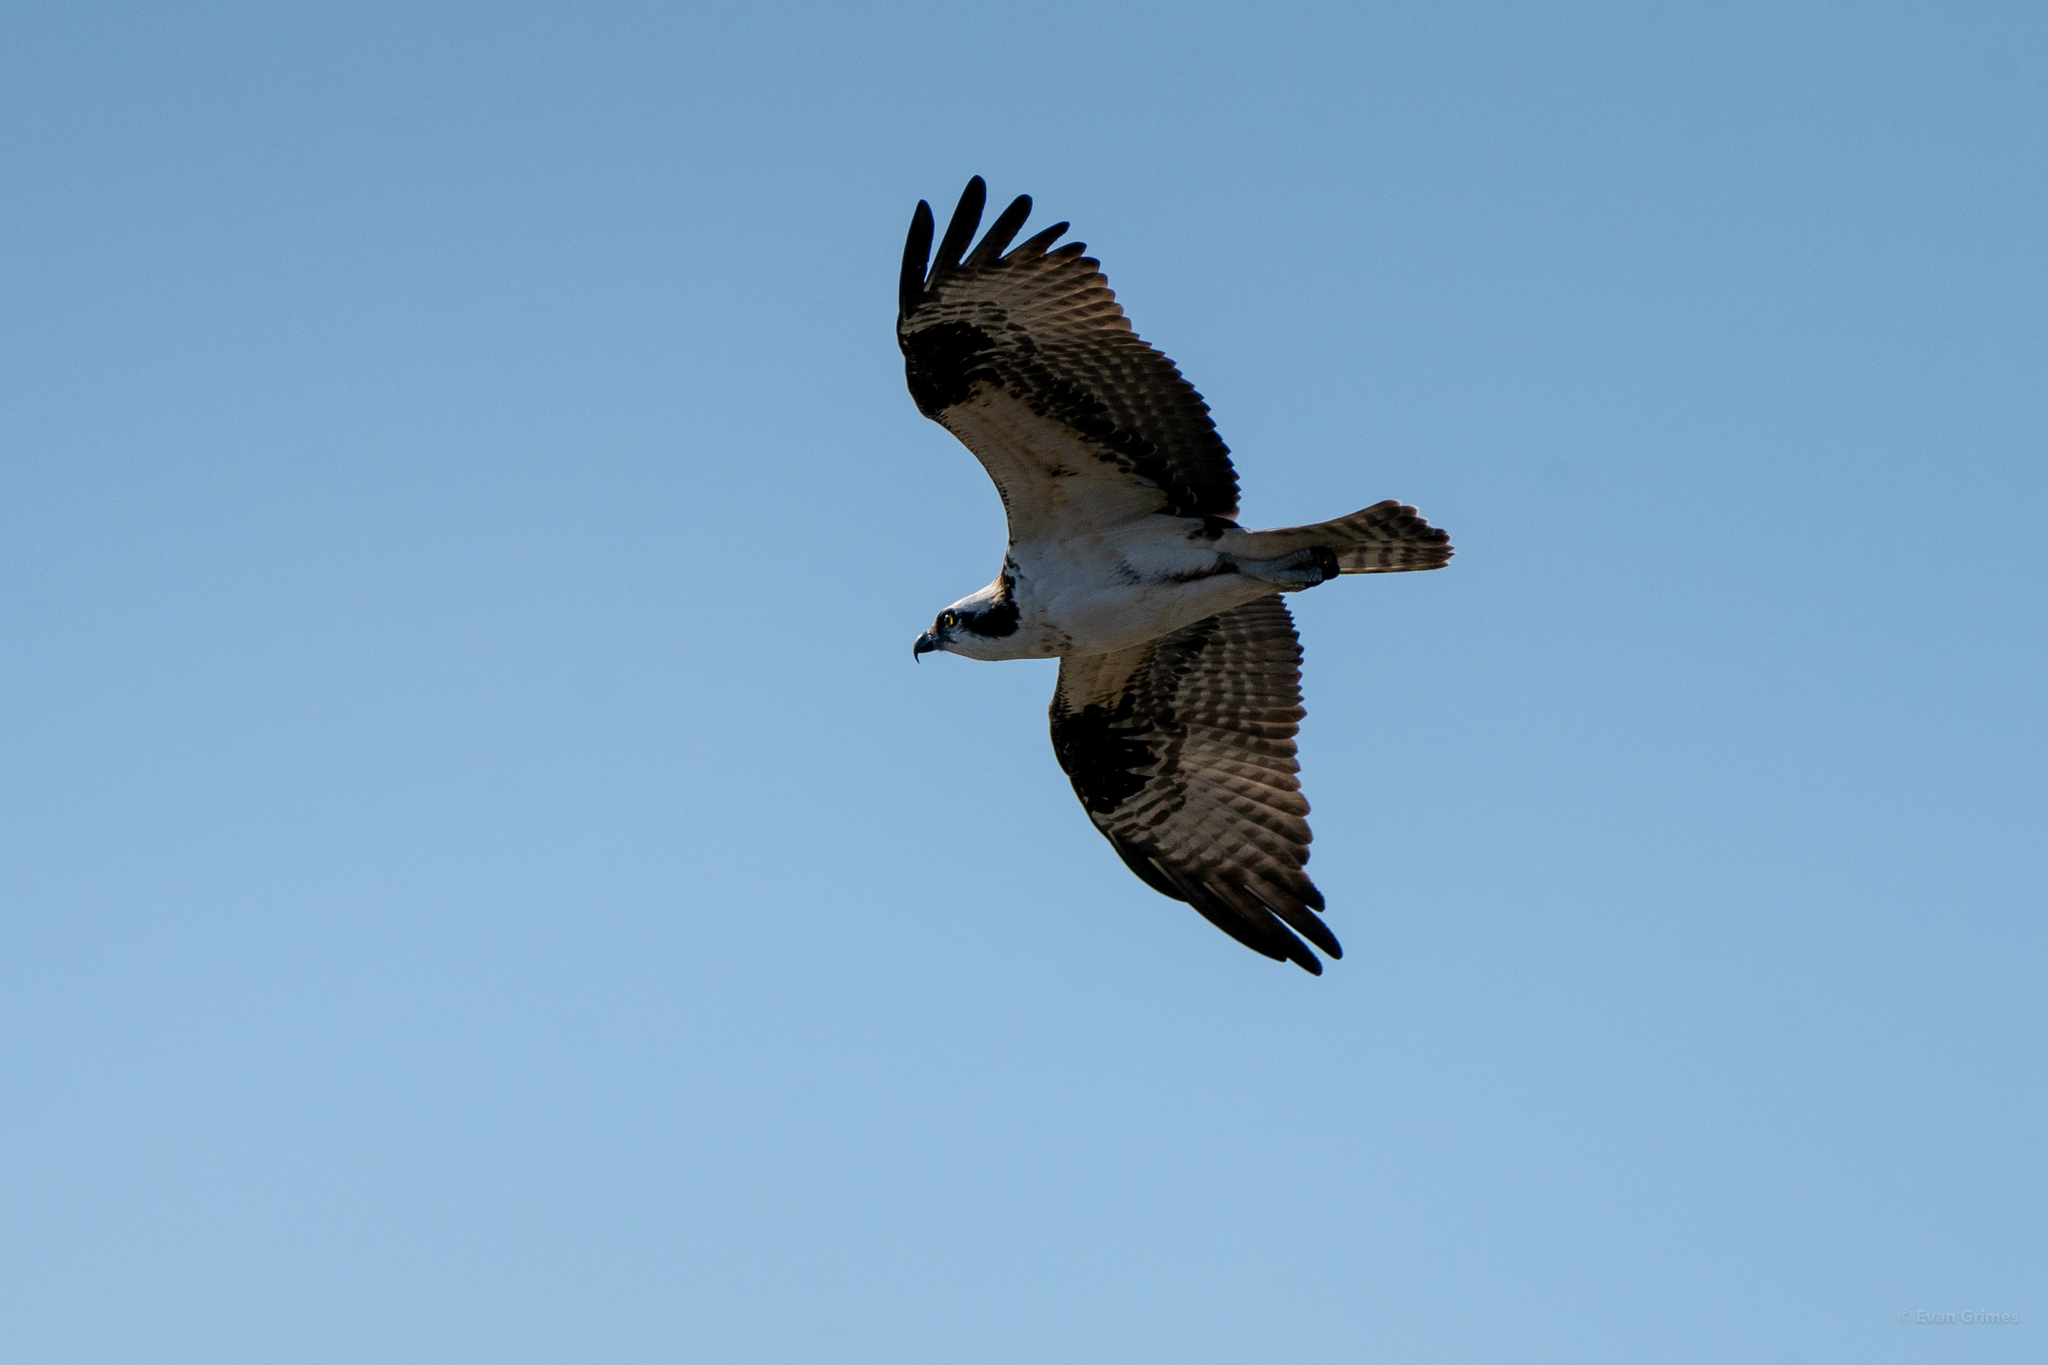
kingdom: Animalia
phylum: Chordata
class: Aves
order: Accipitriformes
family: Pandionidae
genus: Pandion
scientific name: Pandion haliaetus
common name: Osprey
